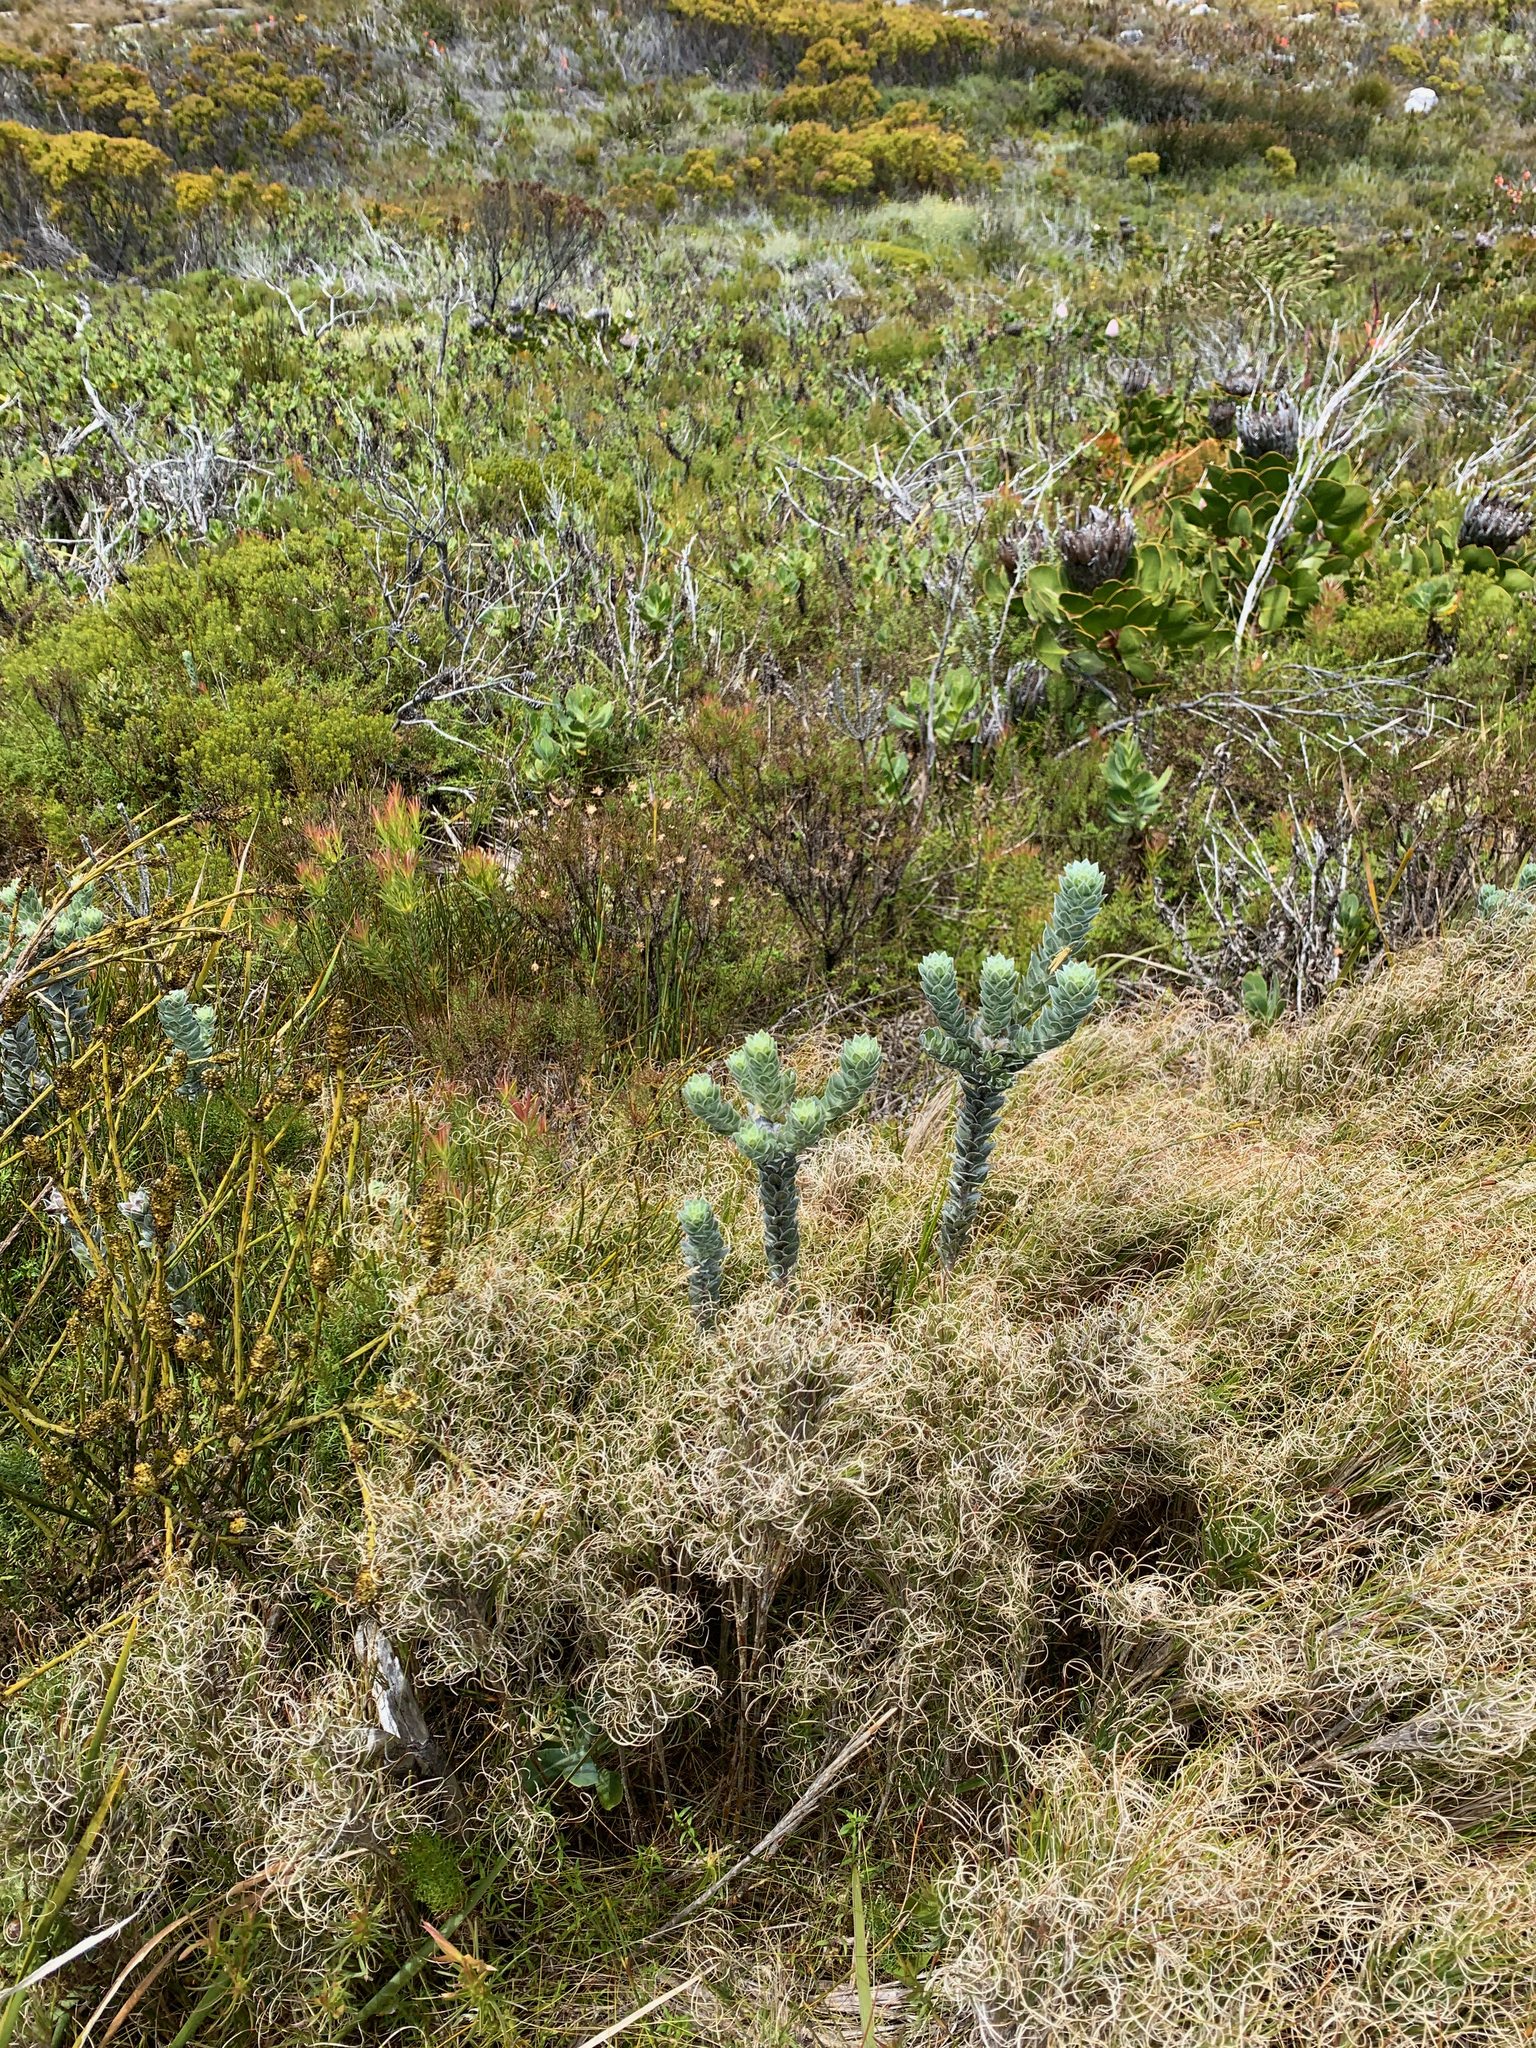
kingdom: Plantae
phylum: Tracheophyta
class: Magnoliopsida
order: Fabales
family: Fabaceae
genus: Xiphotheca
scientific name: Xiphotheca fruticosa
